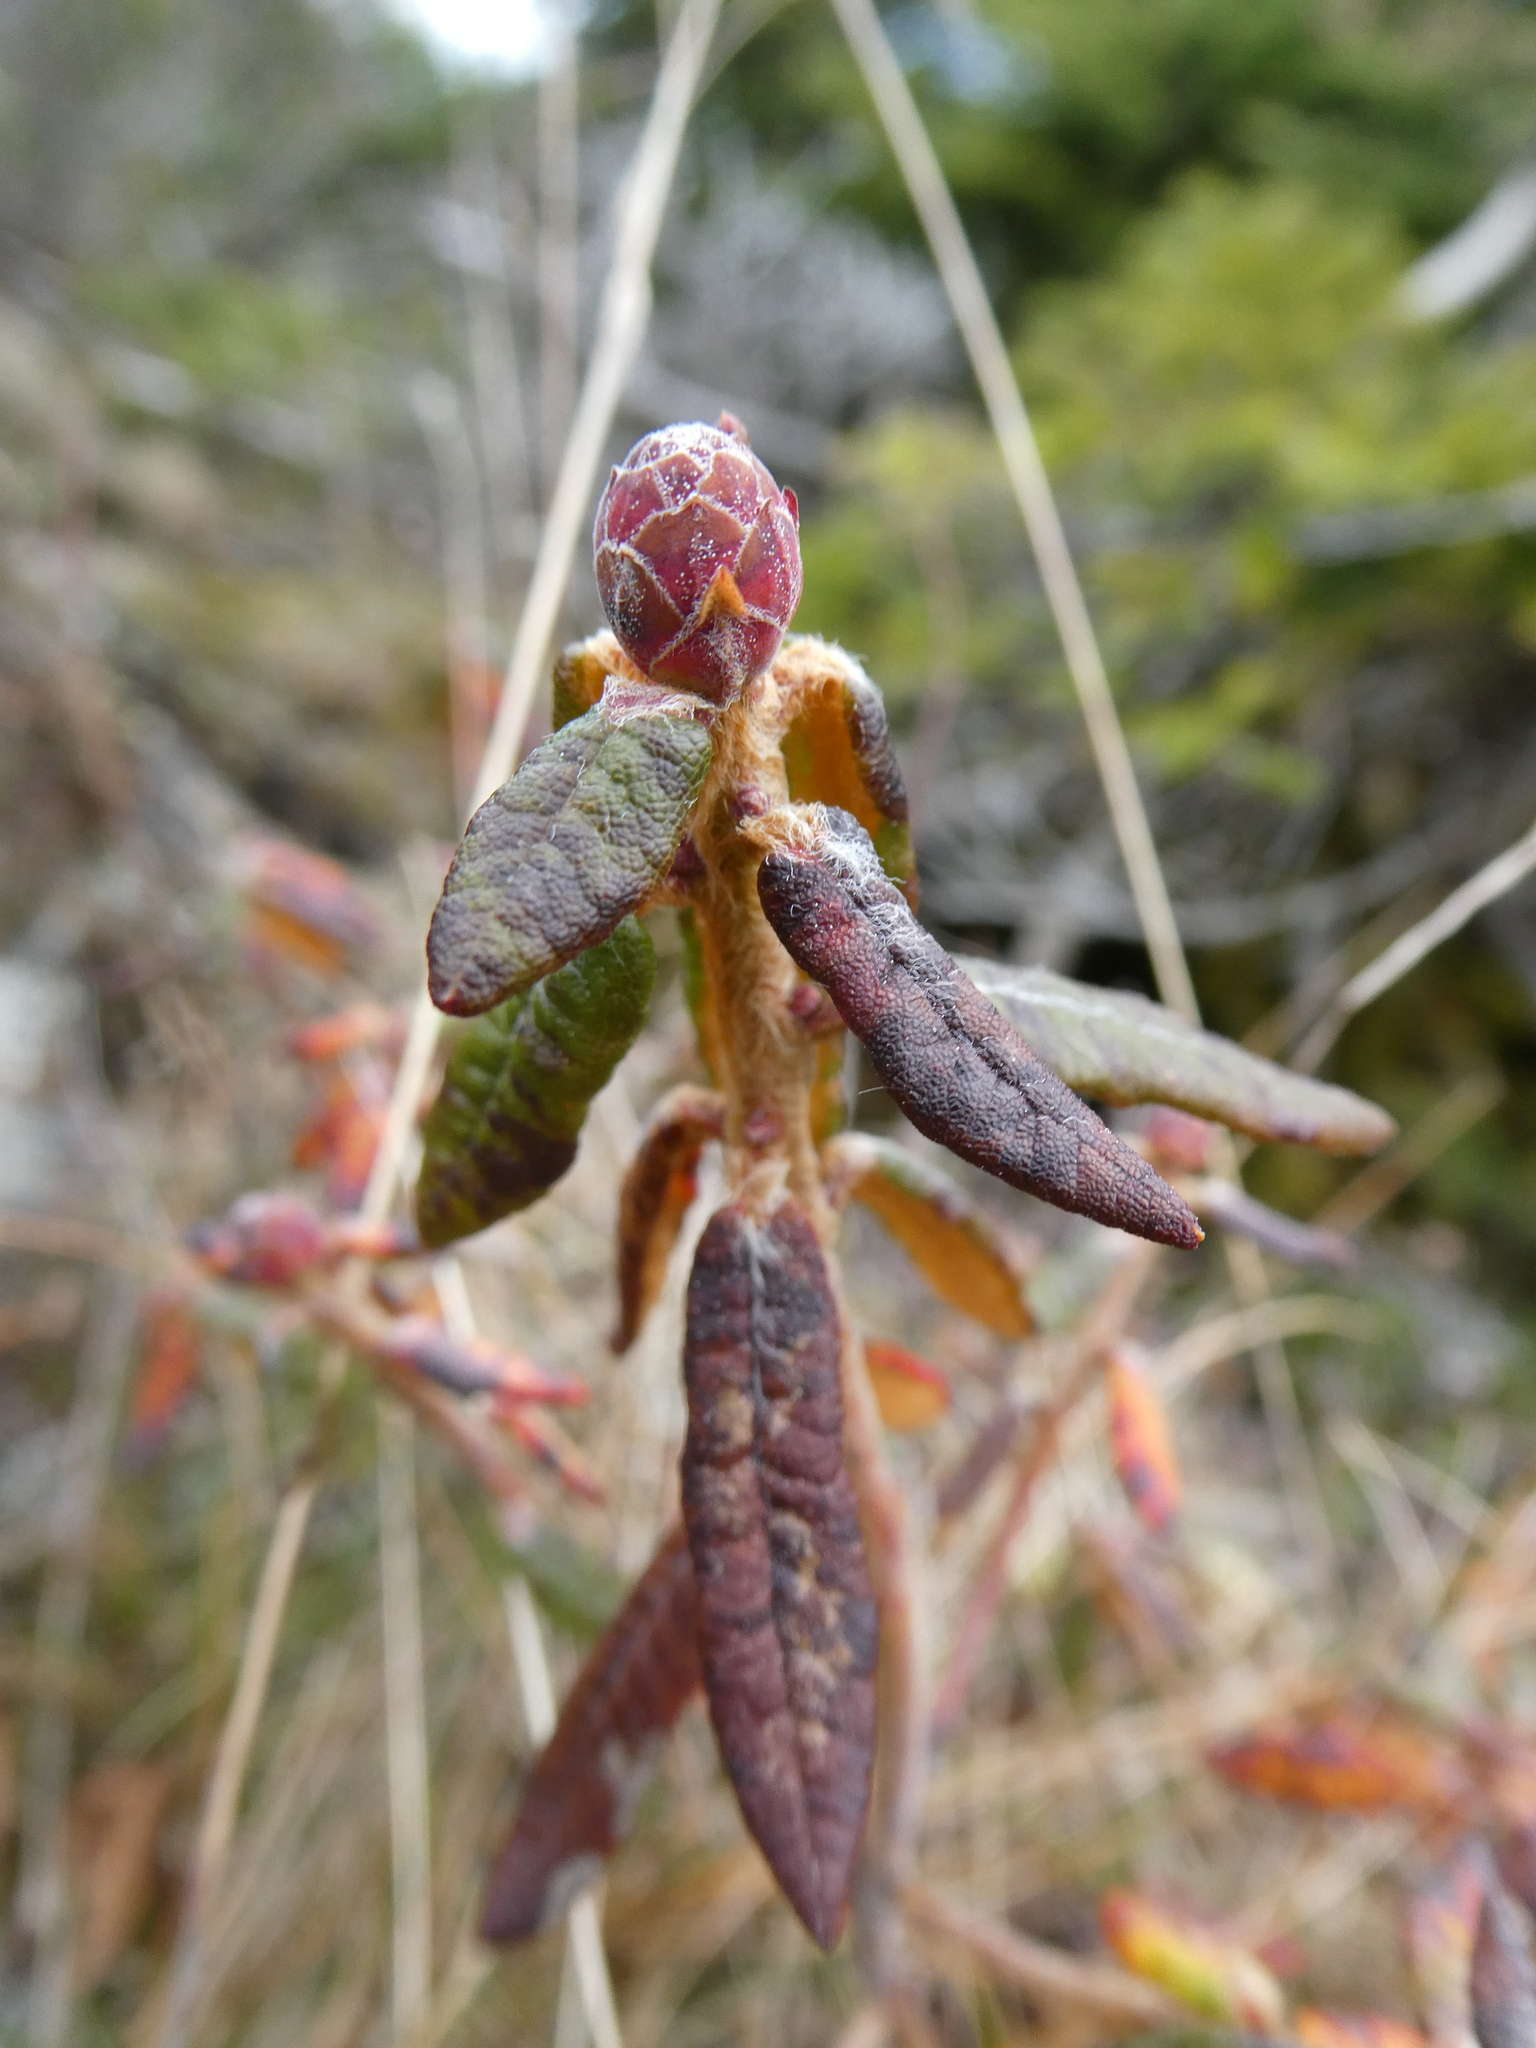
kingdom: Plantae
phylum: Tracheophyta
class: Magnoliopsida
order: Ericales
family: Ericaceae
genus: Rhododendron
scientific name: Rhododendron groenlandicum
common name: Bog labrador tea
